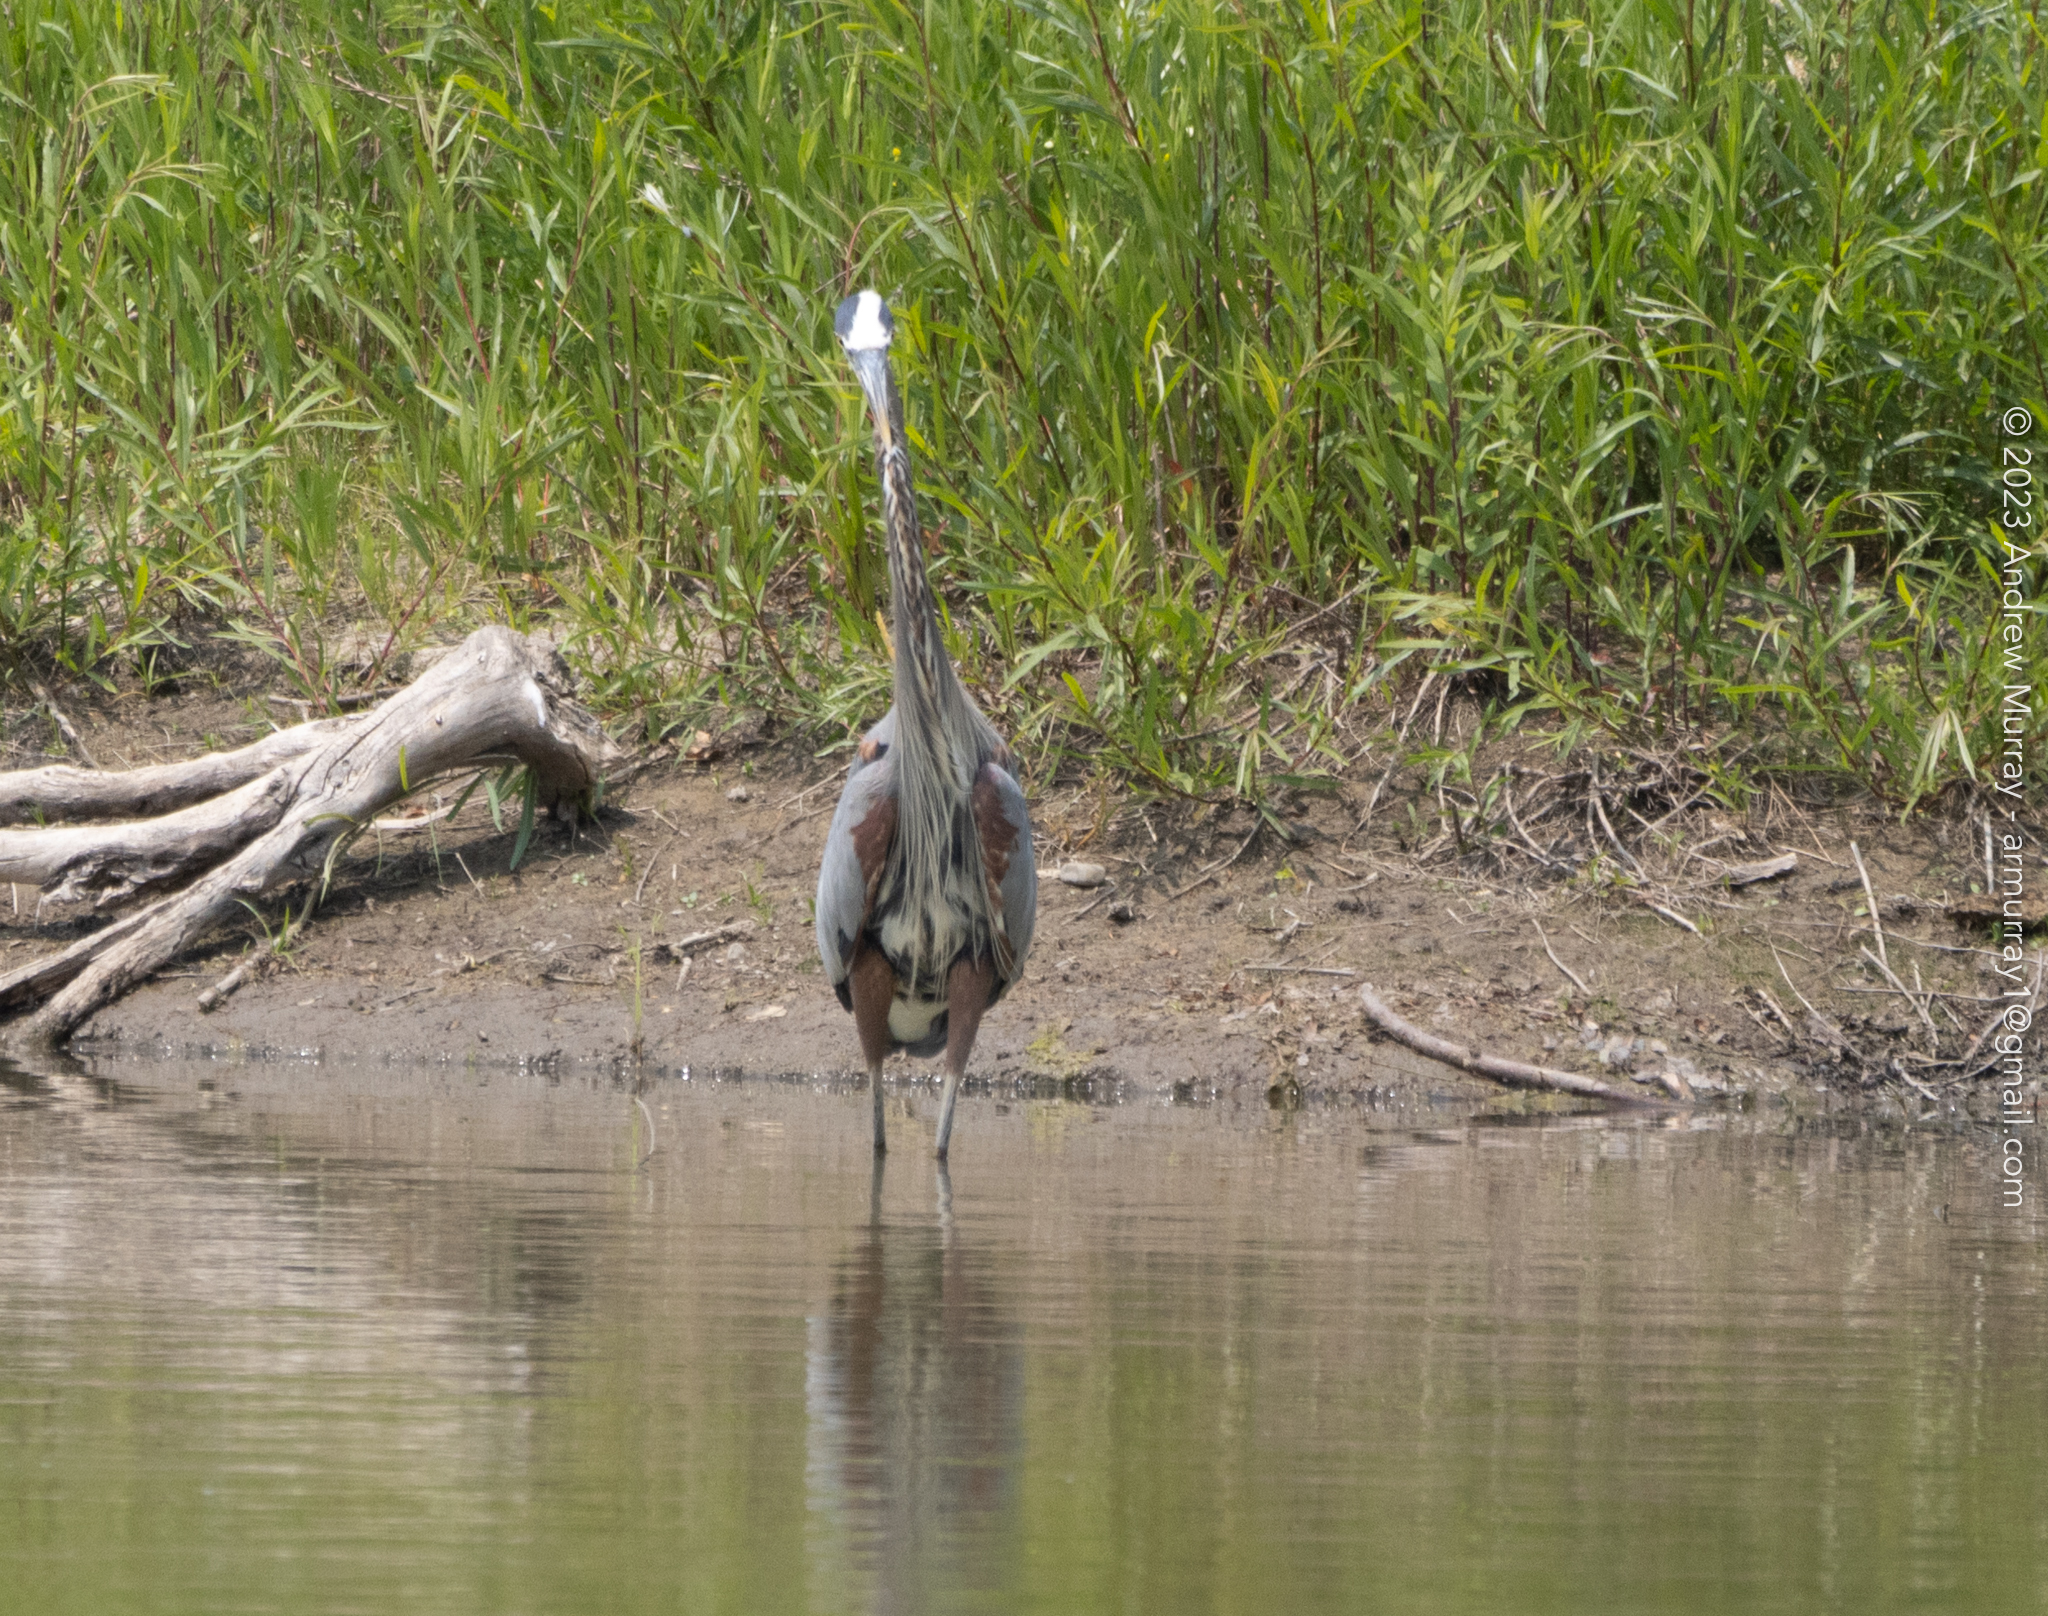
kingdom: Animalia
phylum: Chordata
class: Aves
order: Pelecaniformes
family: Ardeidae
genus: Ardea
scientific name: Ardea herodias
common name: Great blue heron
